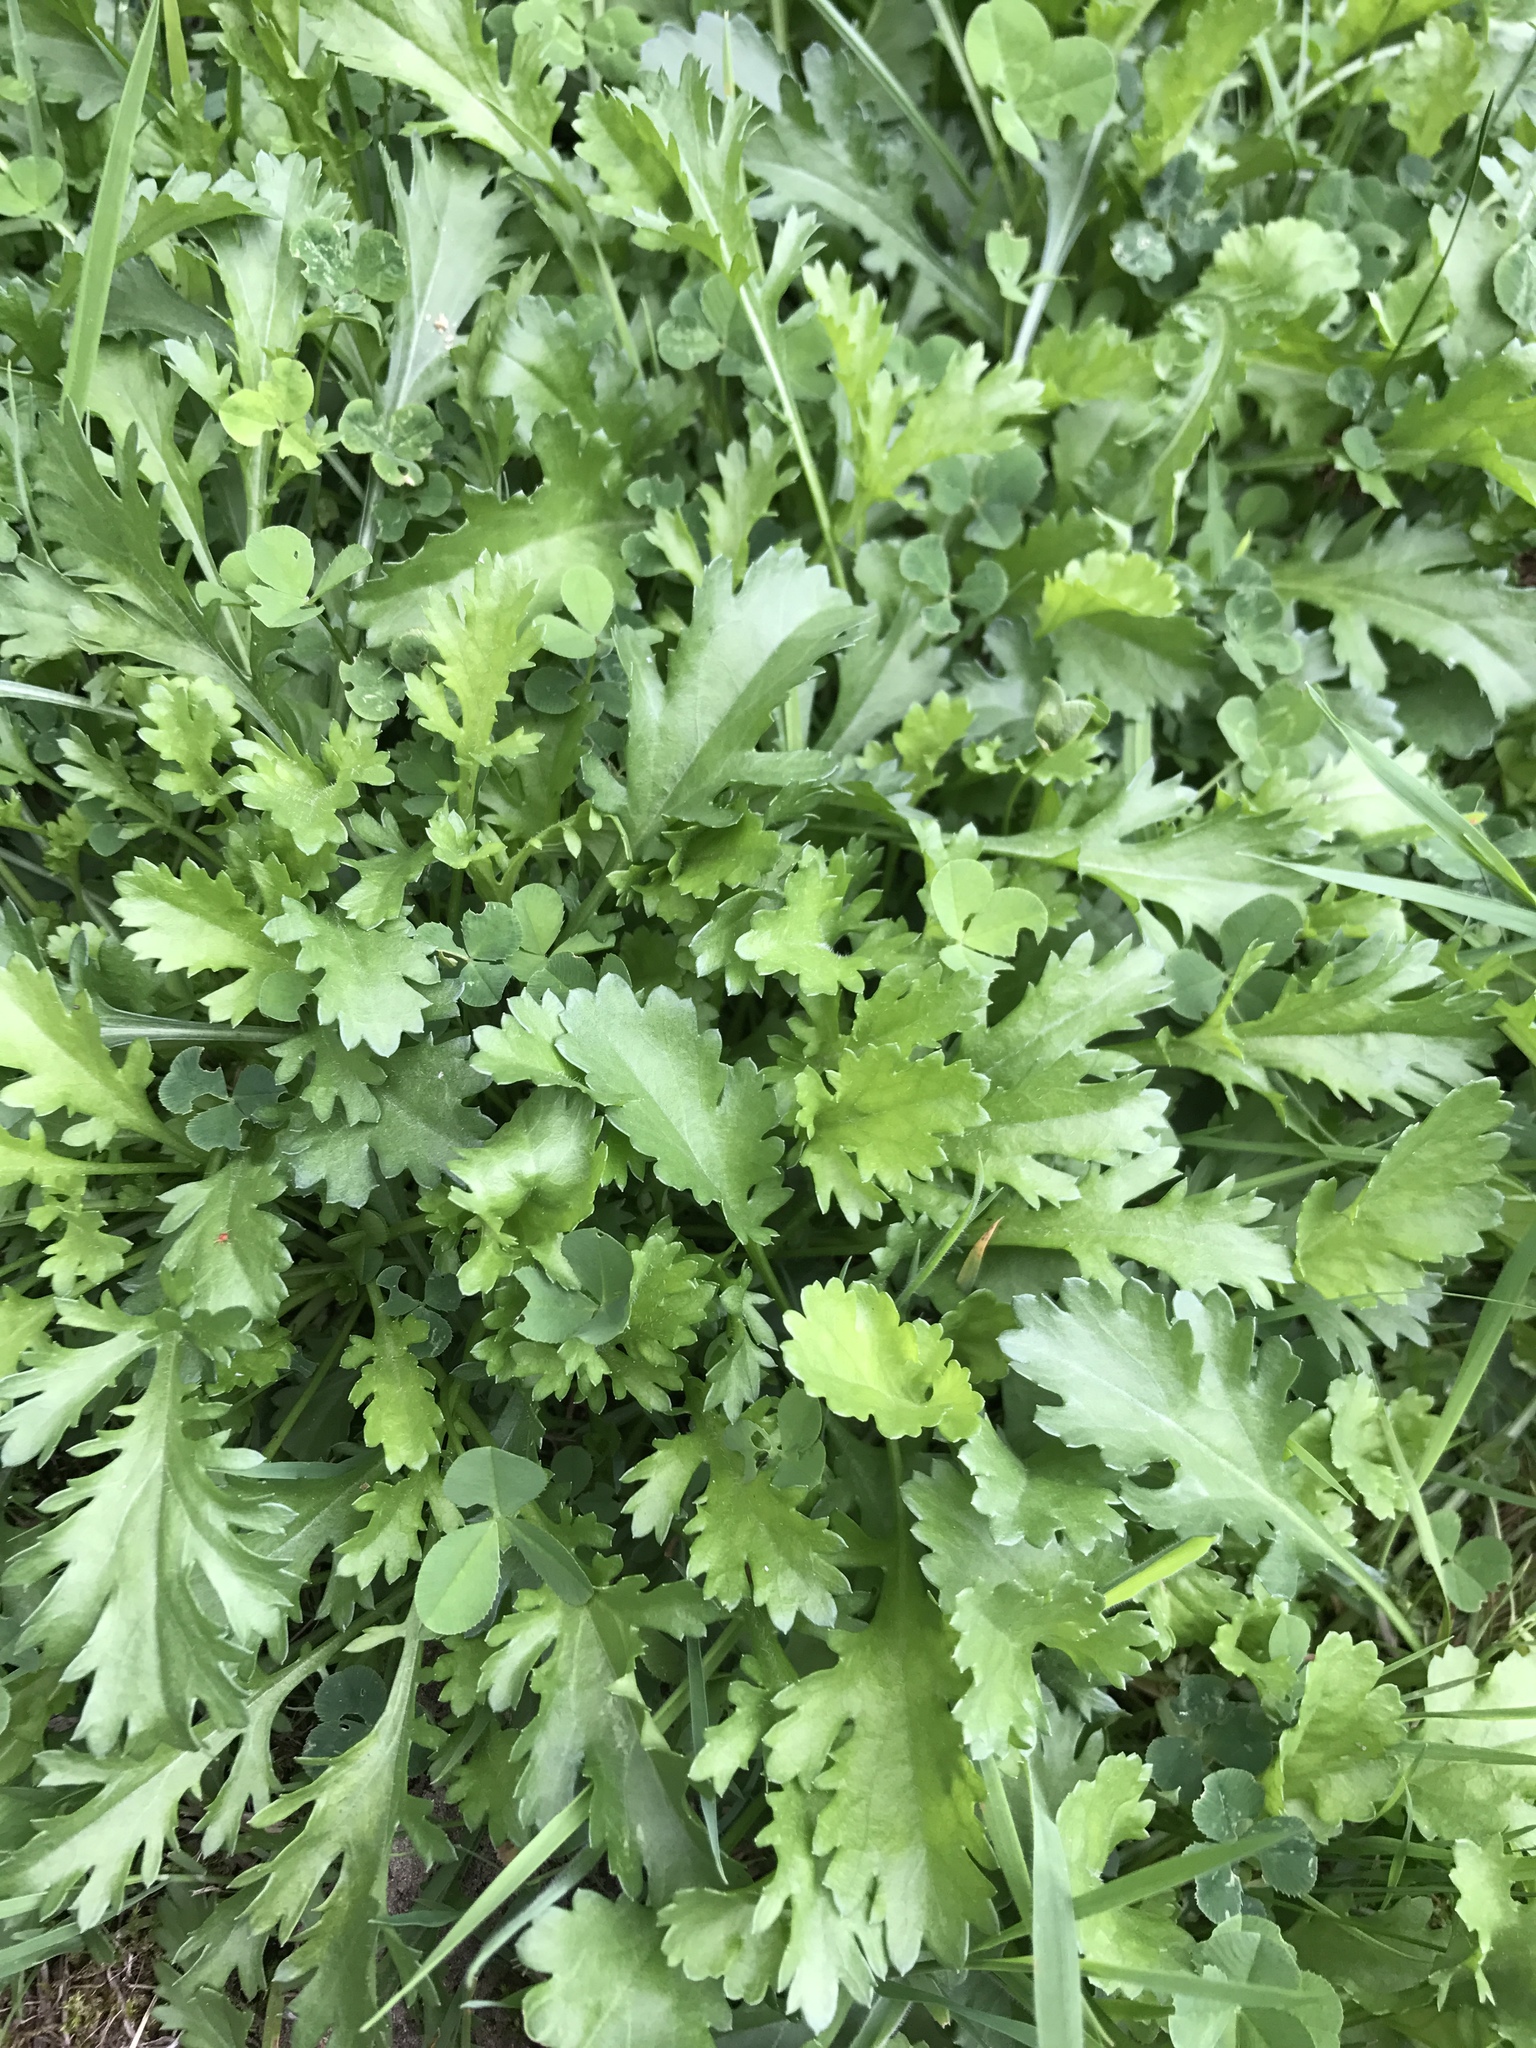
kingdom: Plantae
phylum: Tracheophyta
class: Magnoliopsida
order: Asterales
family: Asteraceae
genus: Leucanthemum
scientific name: Leucanthemum vulgare
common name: Oxeye daisy
